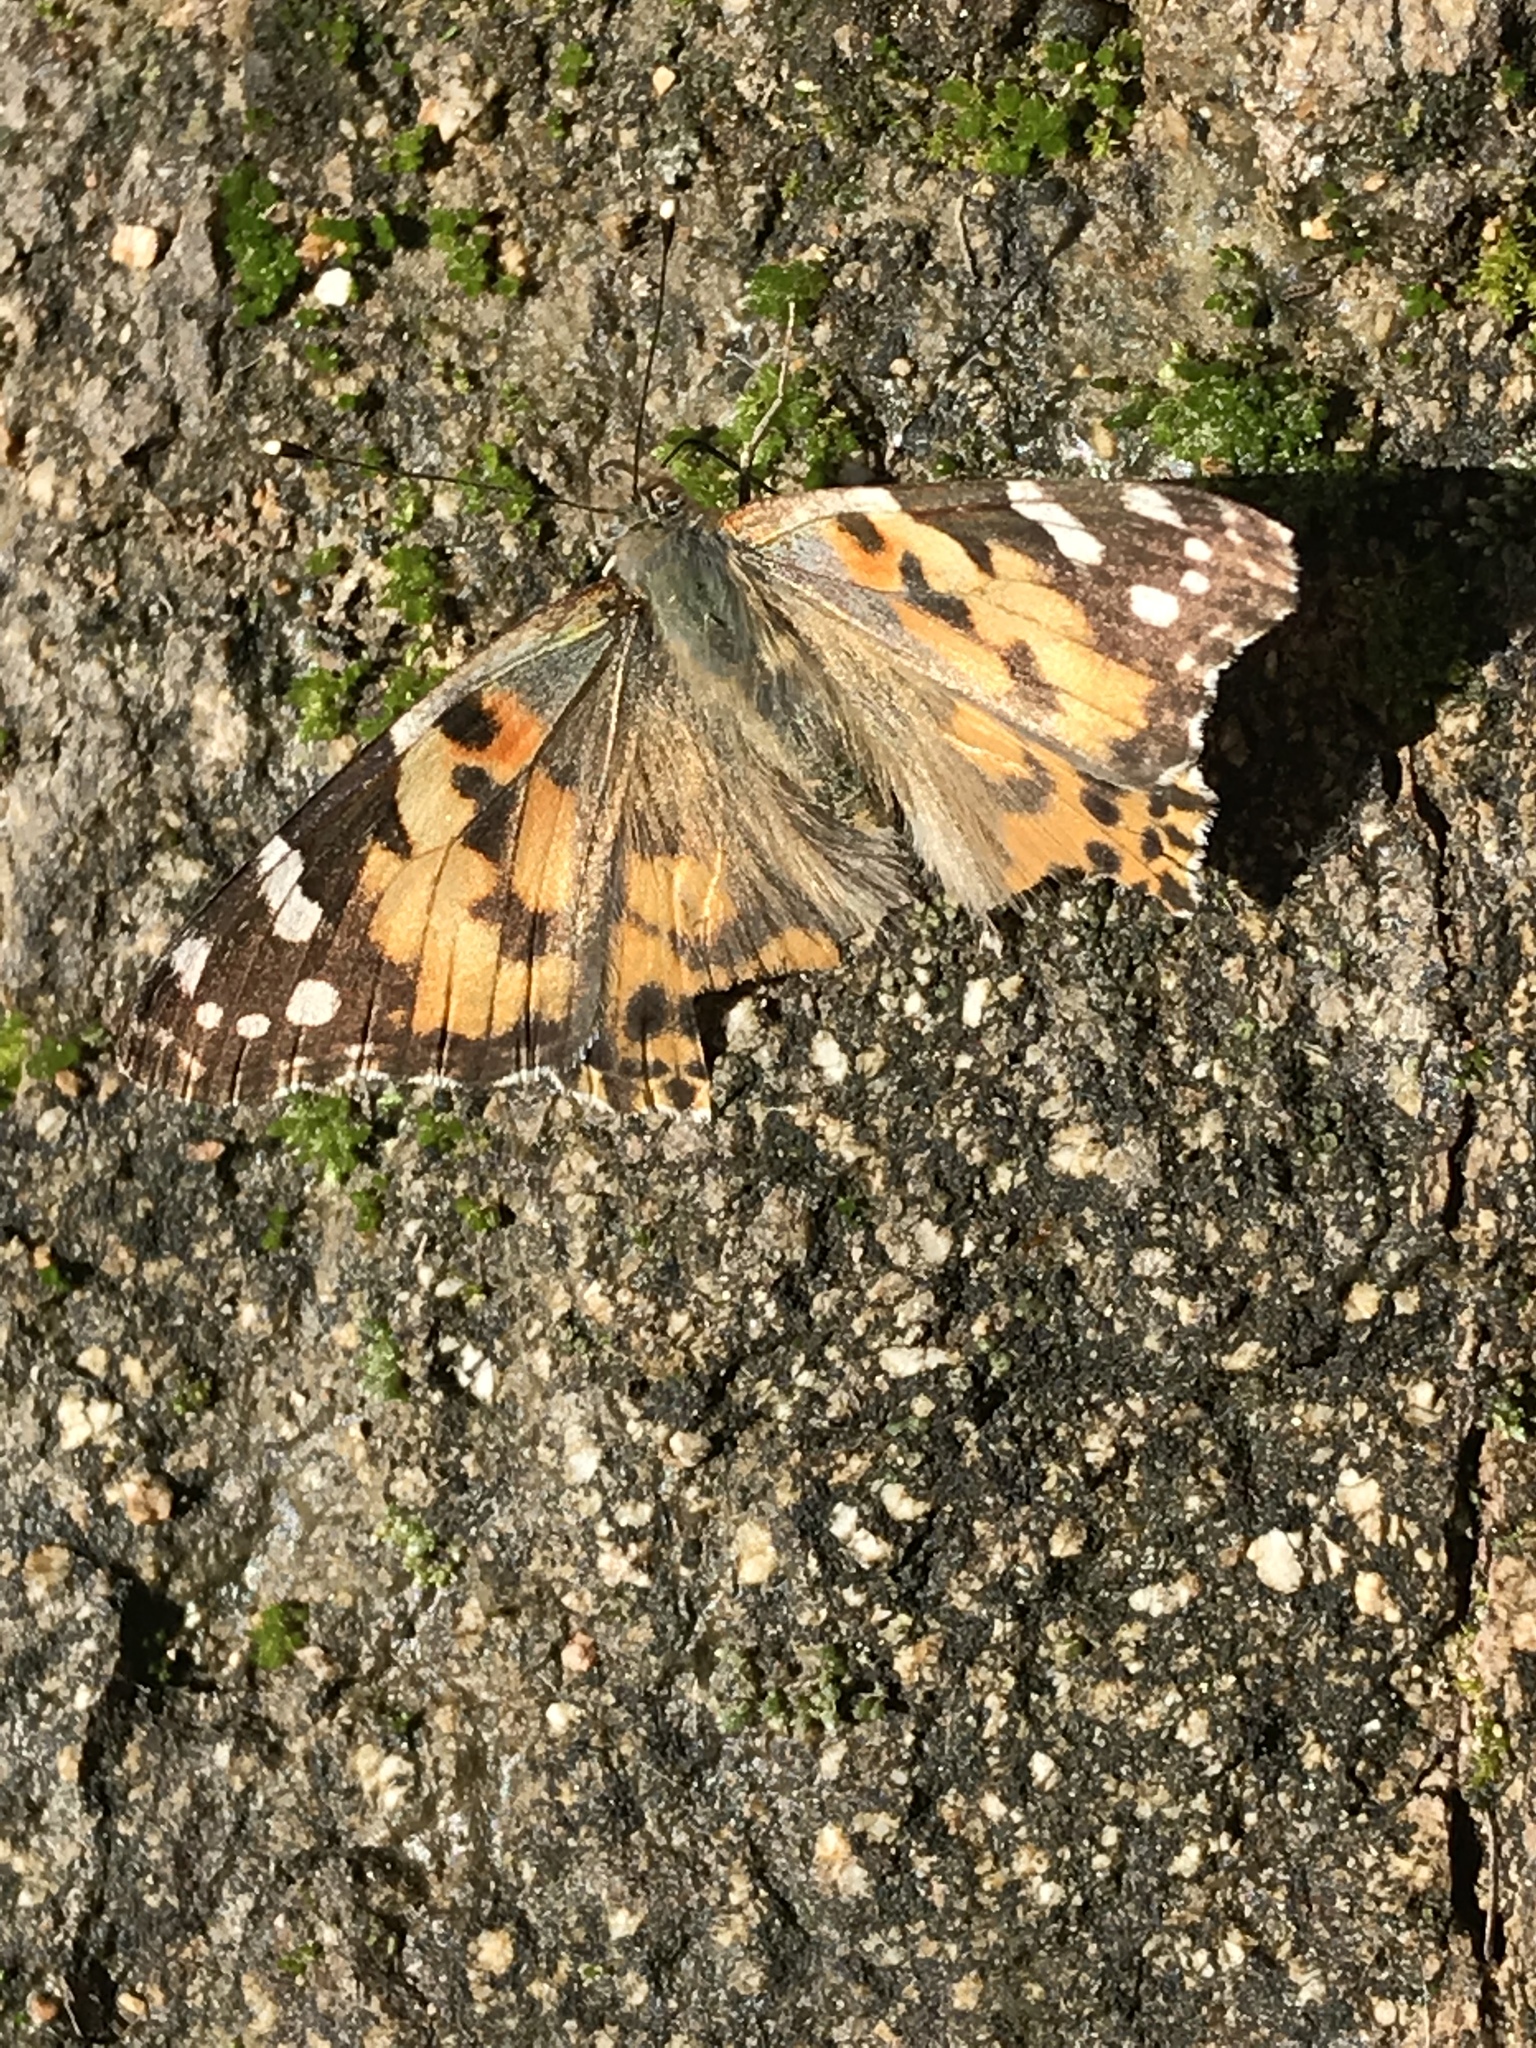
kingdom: Animalia
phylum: Arthropoda
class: Insecta
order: Lepidoptera
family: Nymphalidae
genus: Vanessa
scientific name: Vanessa cardui
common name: Painted lady
